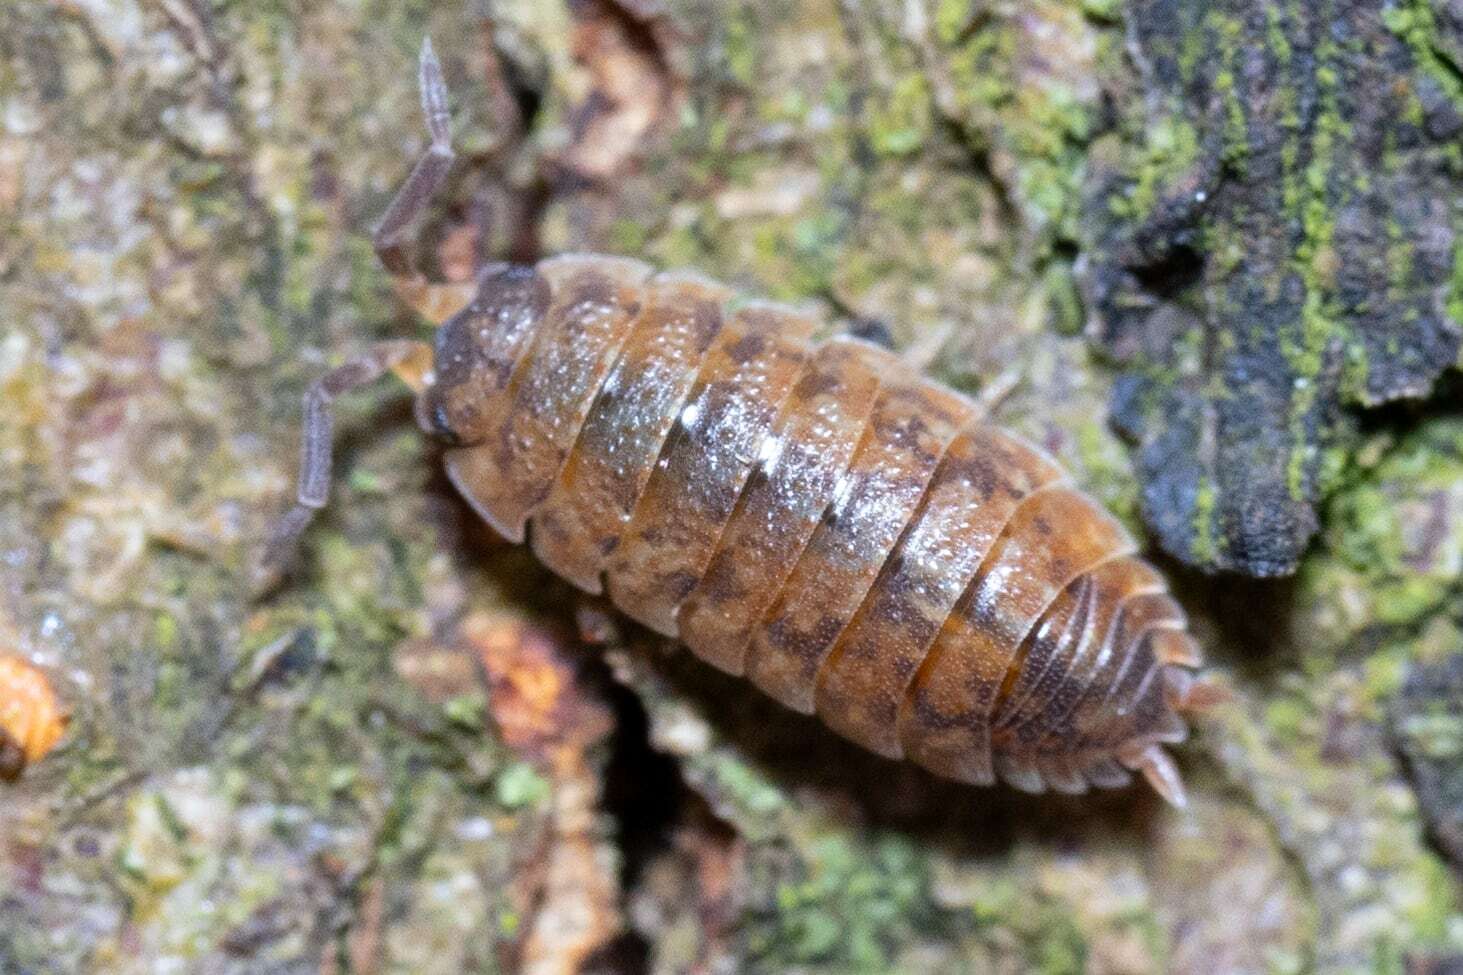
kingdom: Animalia
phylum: Arthropoda
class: Malacostraca
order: Isopoda
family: Porcellionidae
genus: Porcellio
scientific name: Porcellio scaber
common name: Common rough woodlouse
